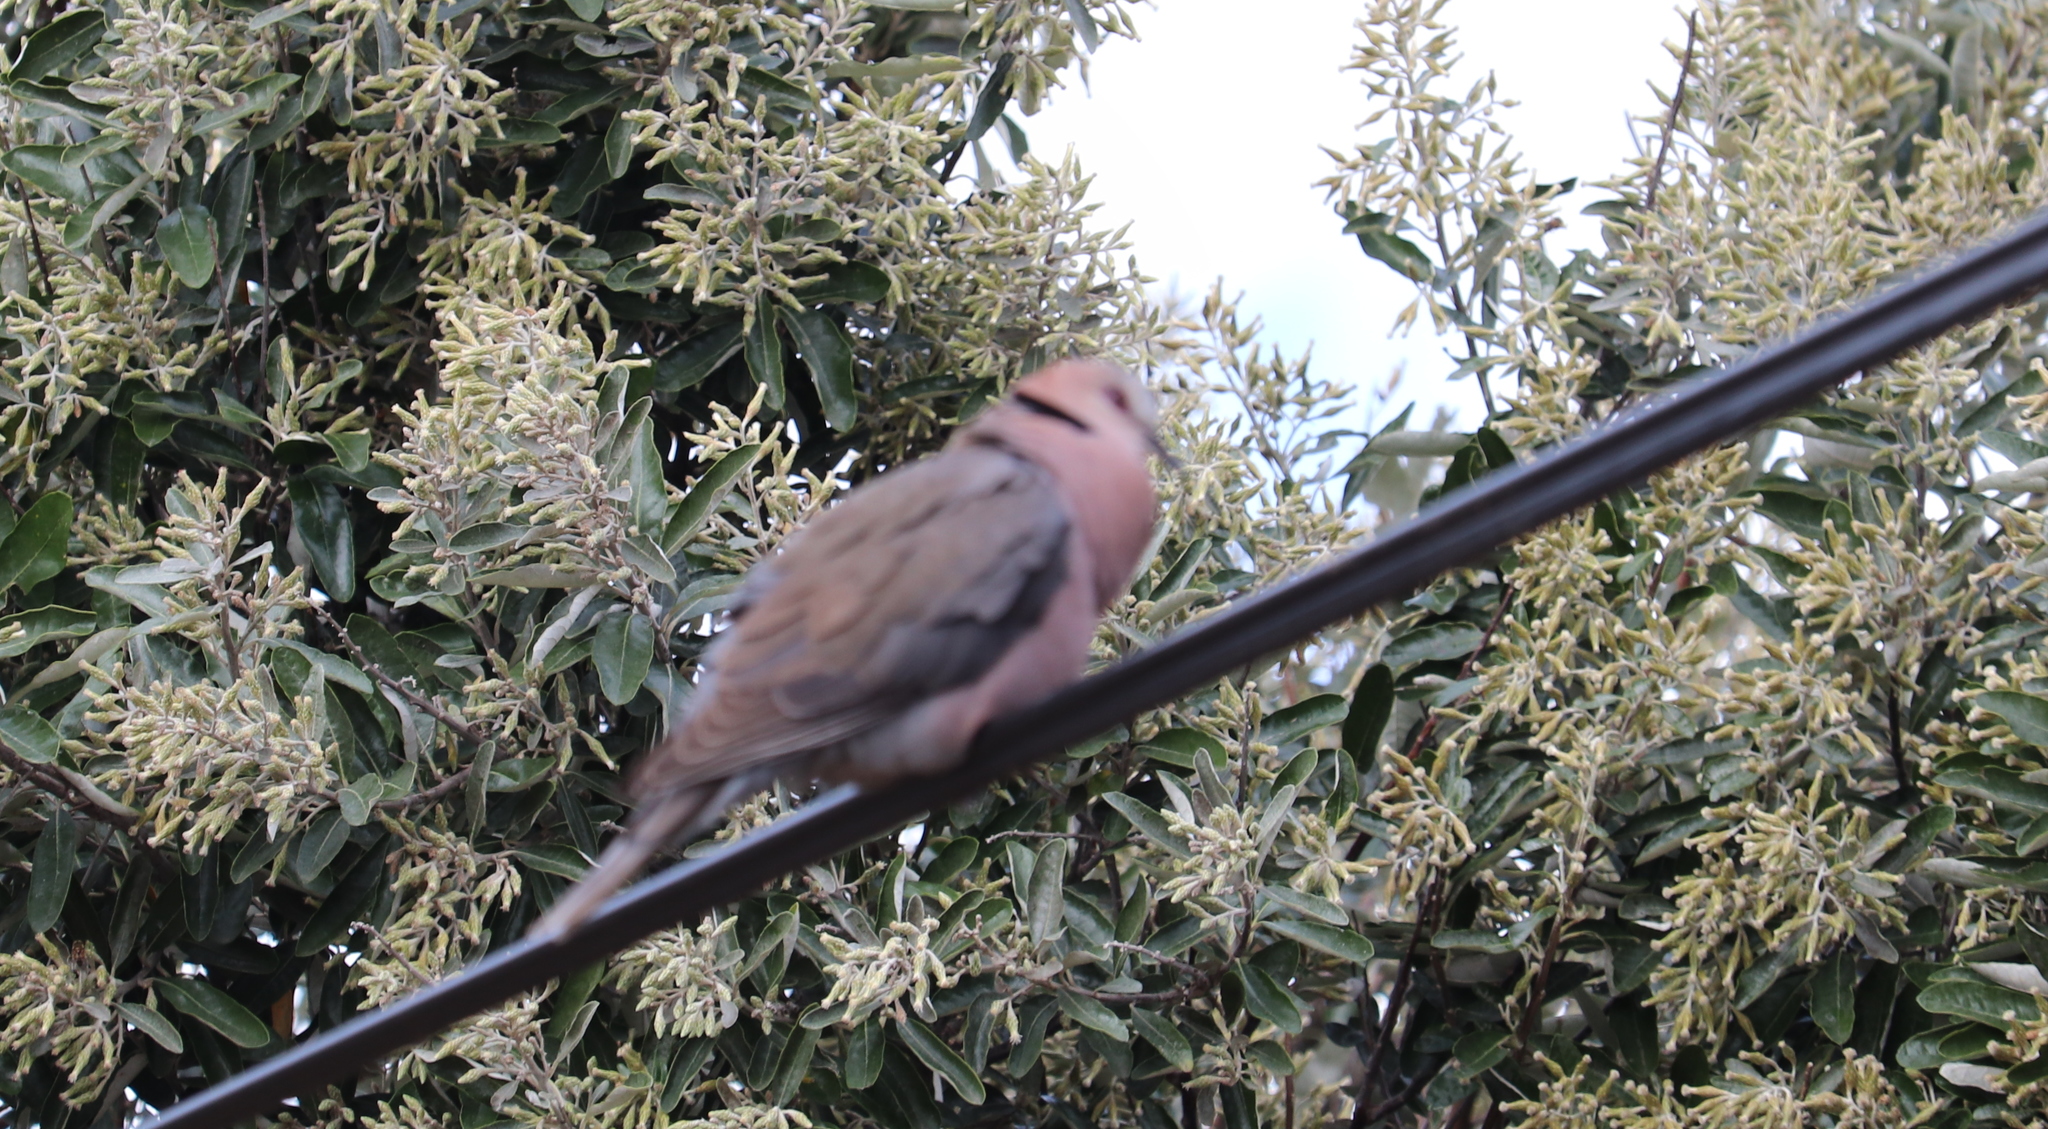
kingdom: Animalia
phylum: Chordata
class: Aves
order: Columbiformes
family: Columbidae
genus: Streptopelia
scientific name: Streptopelia semitorquata
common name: Red-eyed dove
